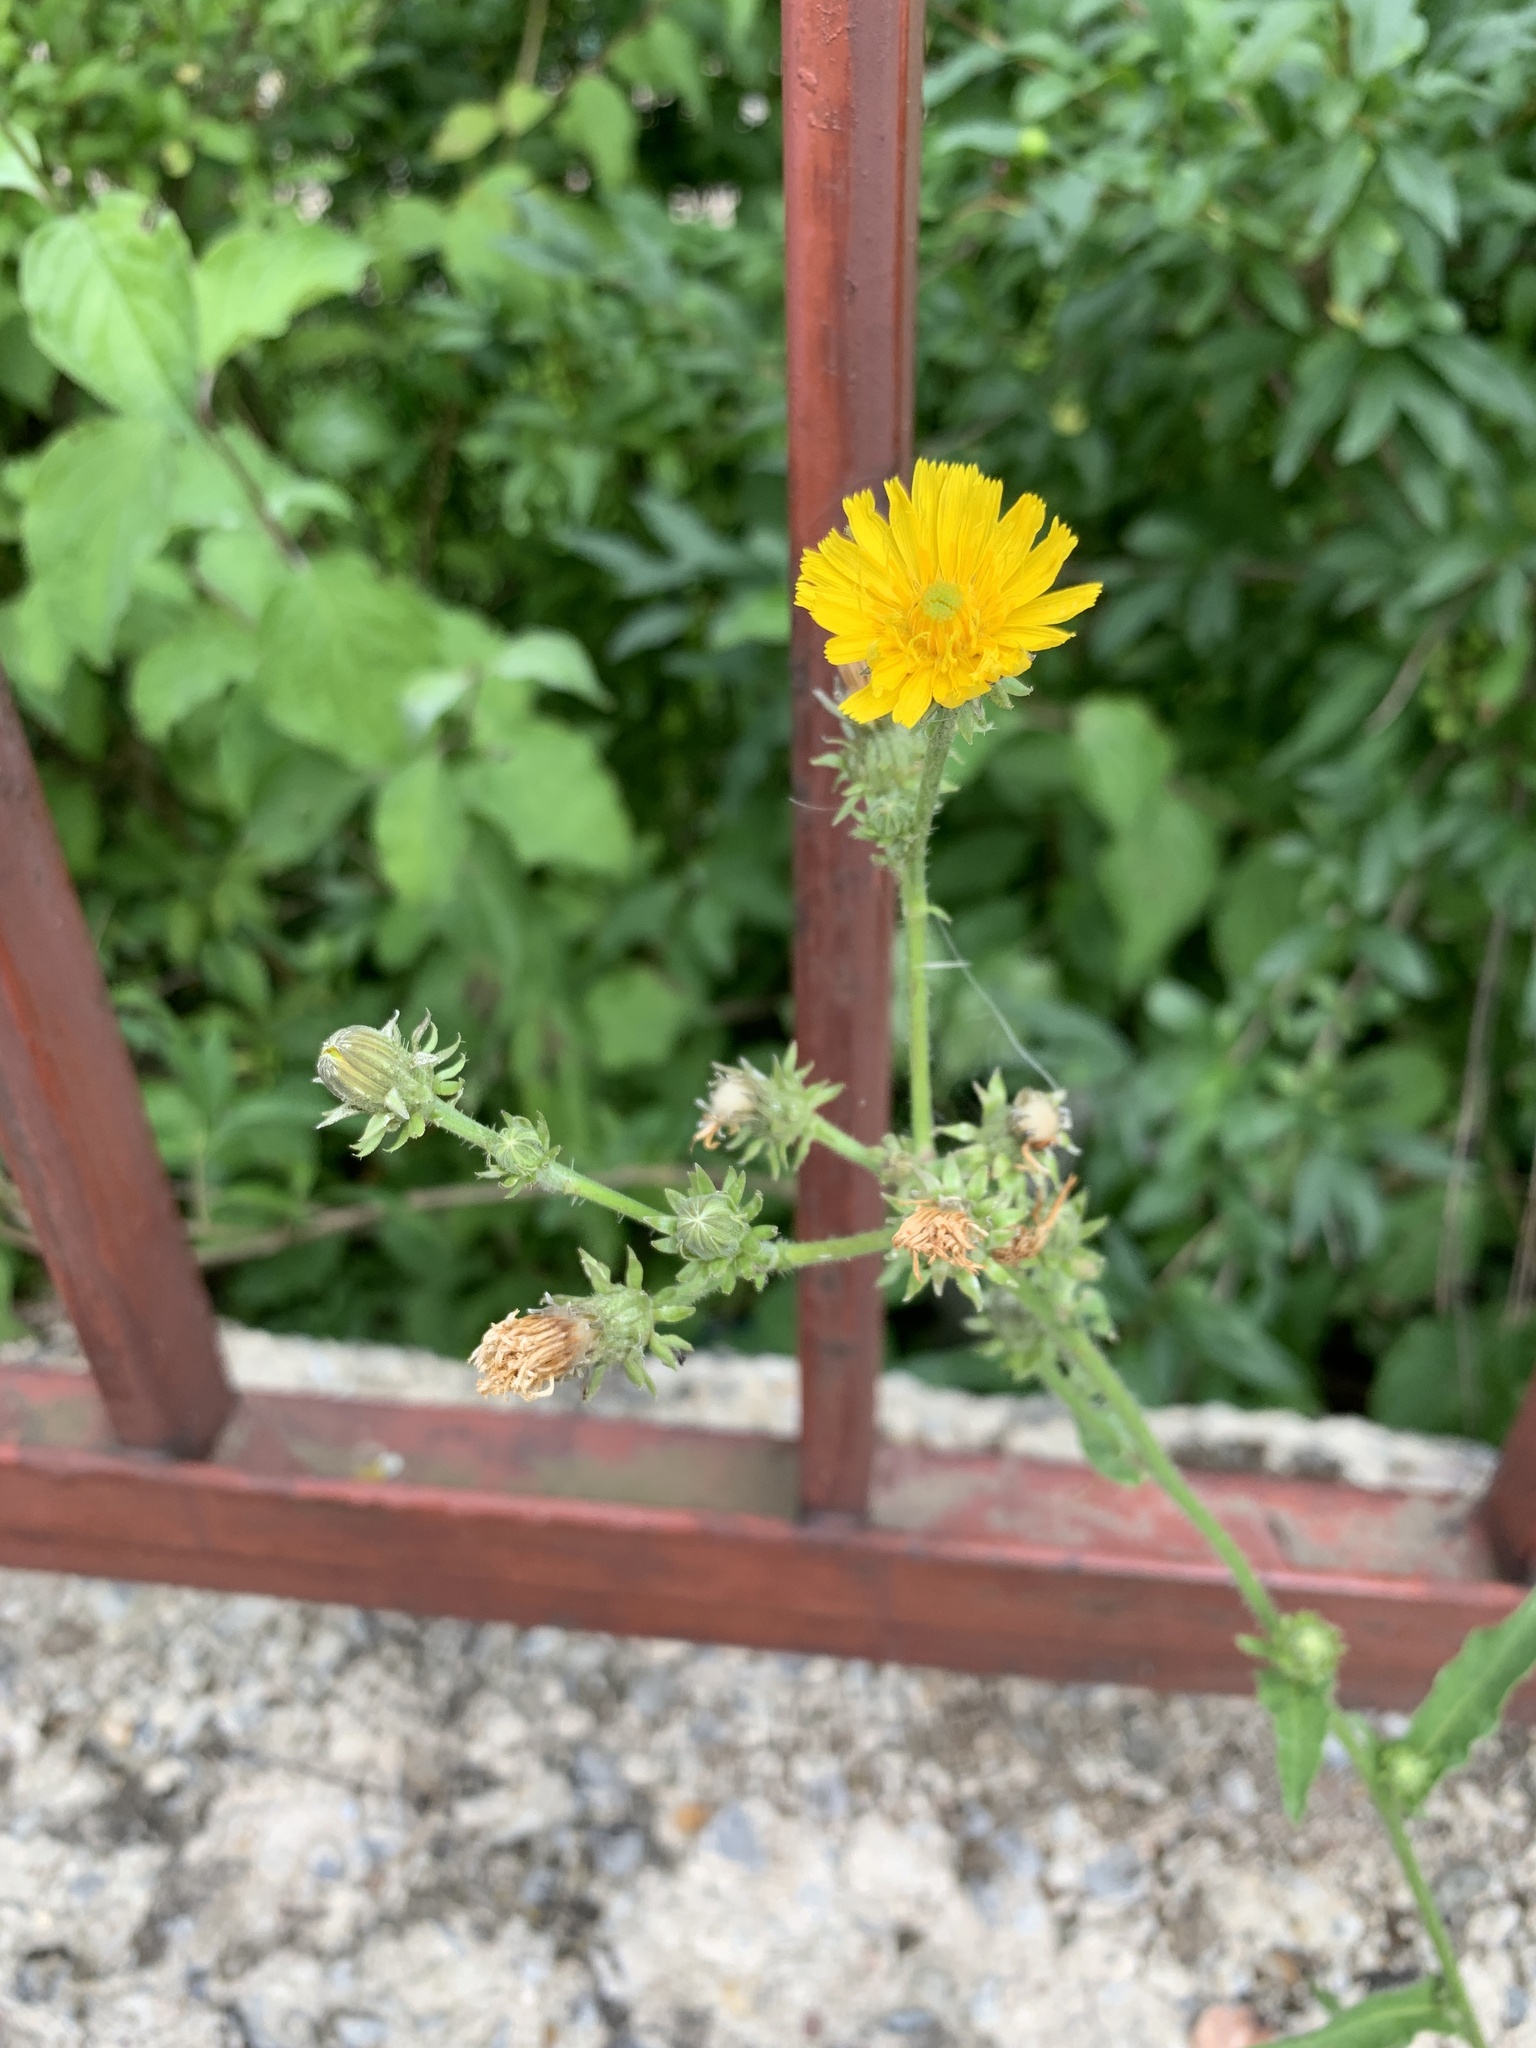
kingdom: Plantae
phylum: Tracheophyta
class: Magnoliopsida
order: Asterales
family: Asteraceae
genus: Picris
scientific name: Picris hieracioides
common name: Hawkweed oxtongue
